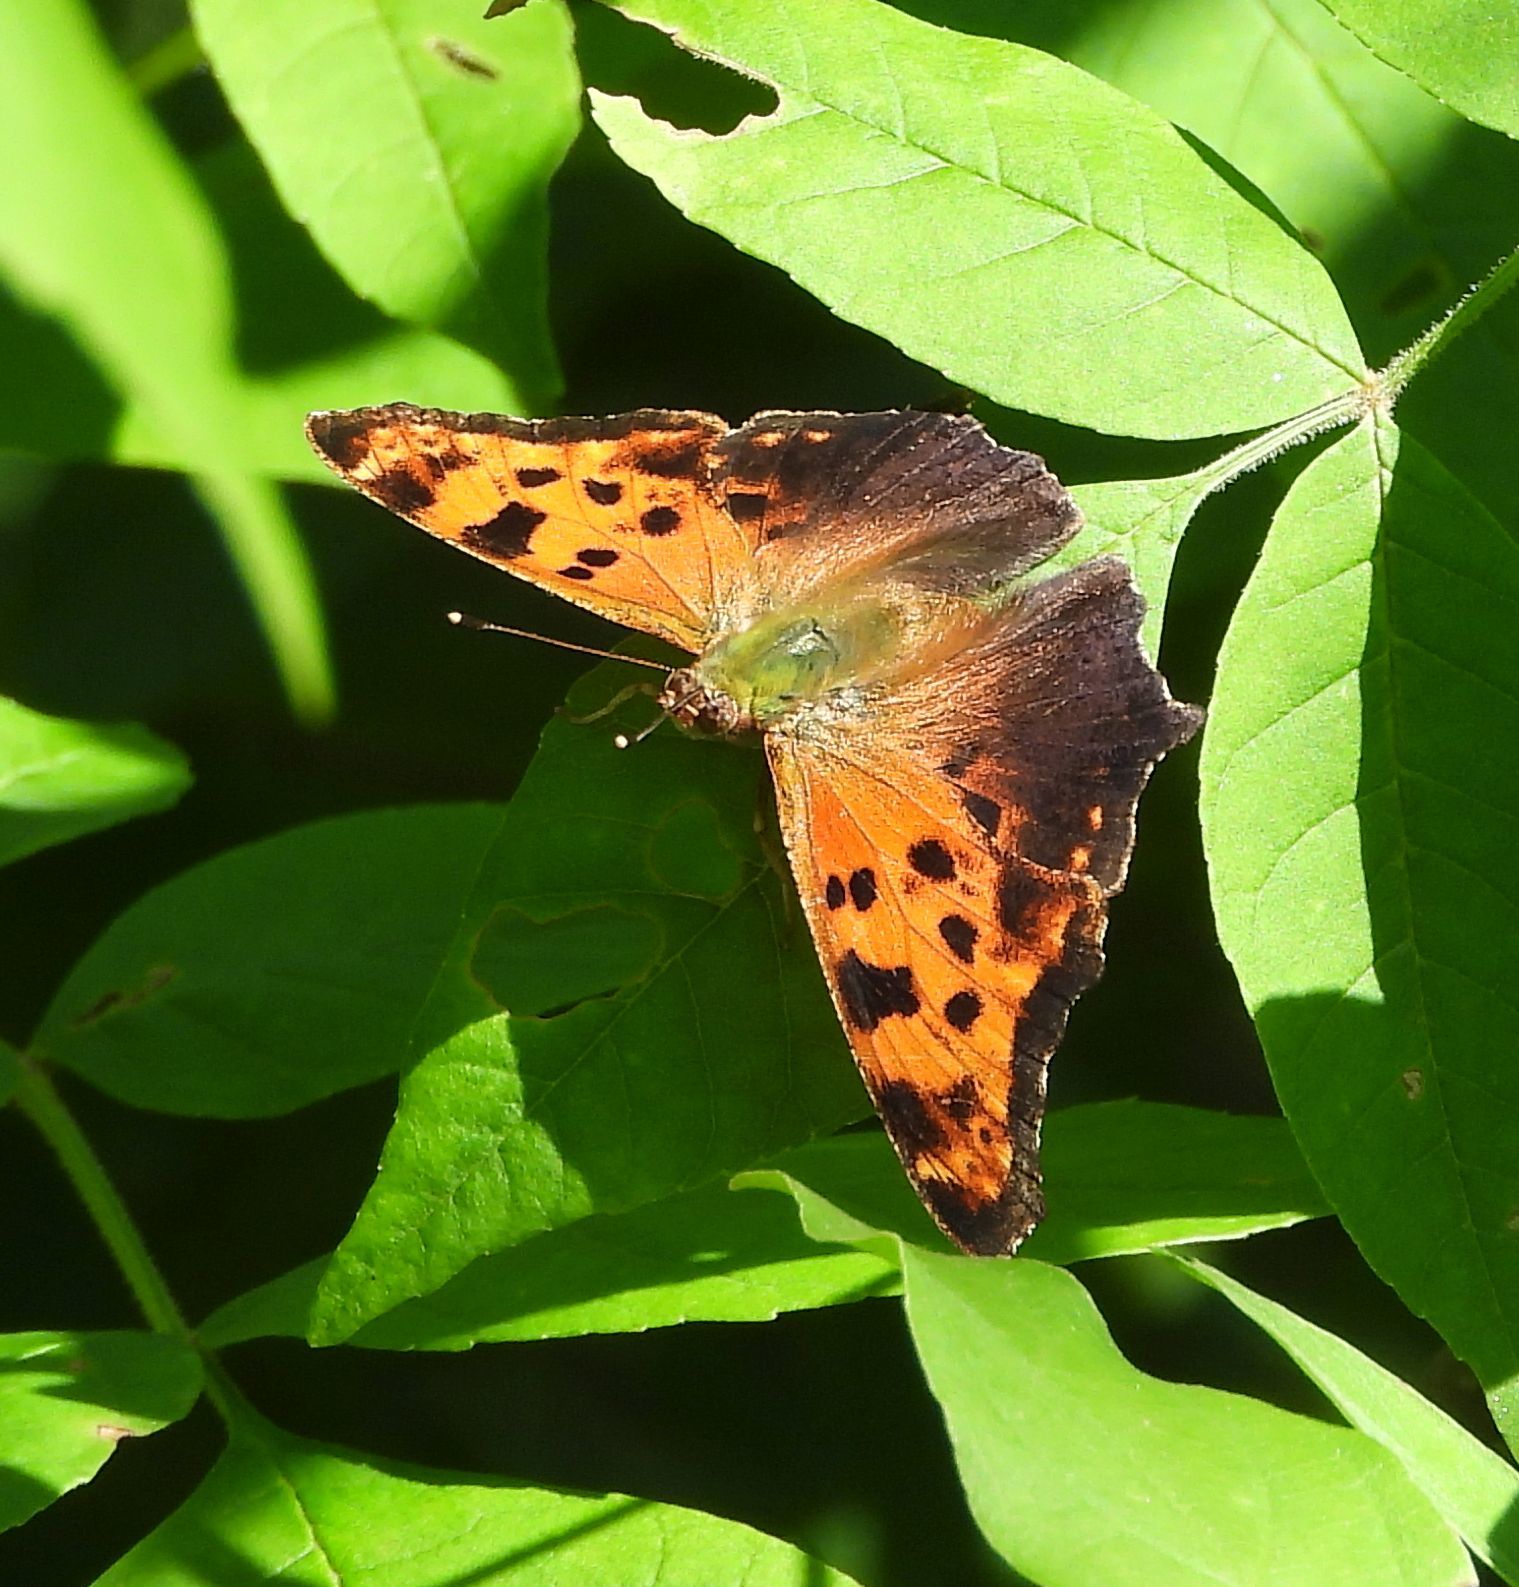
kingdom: Animalia
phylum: Arthropoda
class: Insecta
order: Lepidoptera
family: Nymphalidae
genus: Polygonia
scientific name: Polygonia comma
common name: Eastern comma
